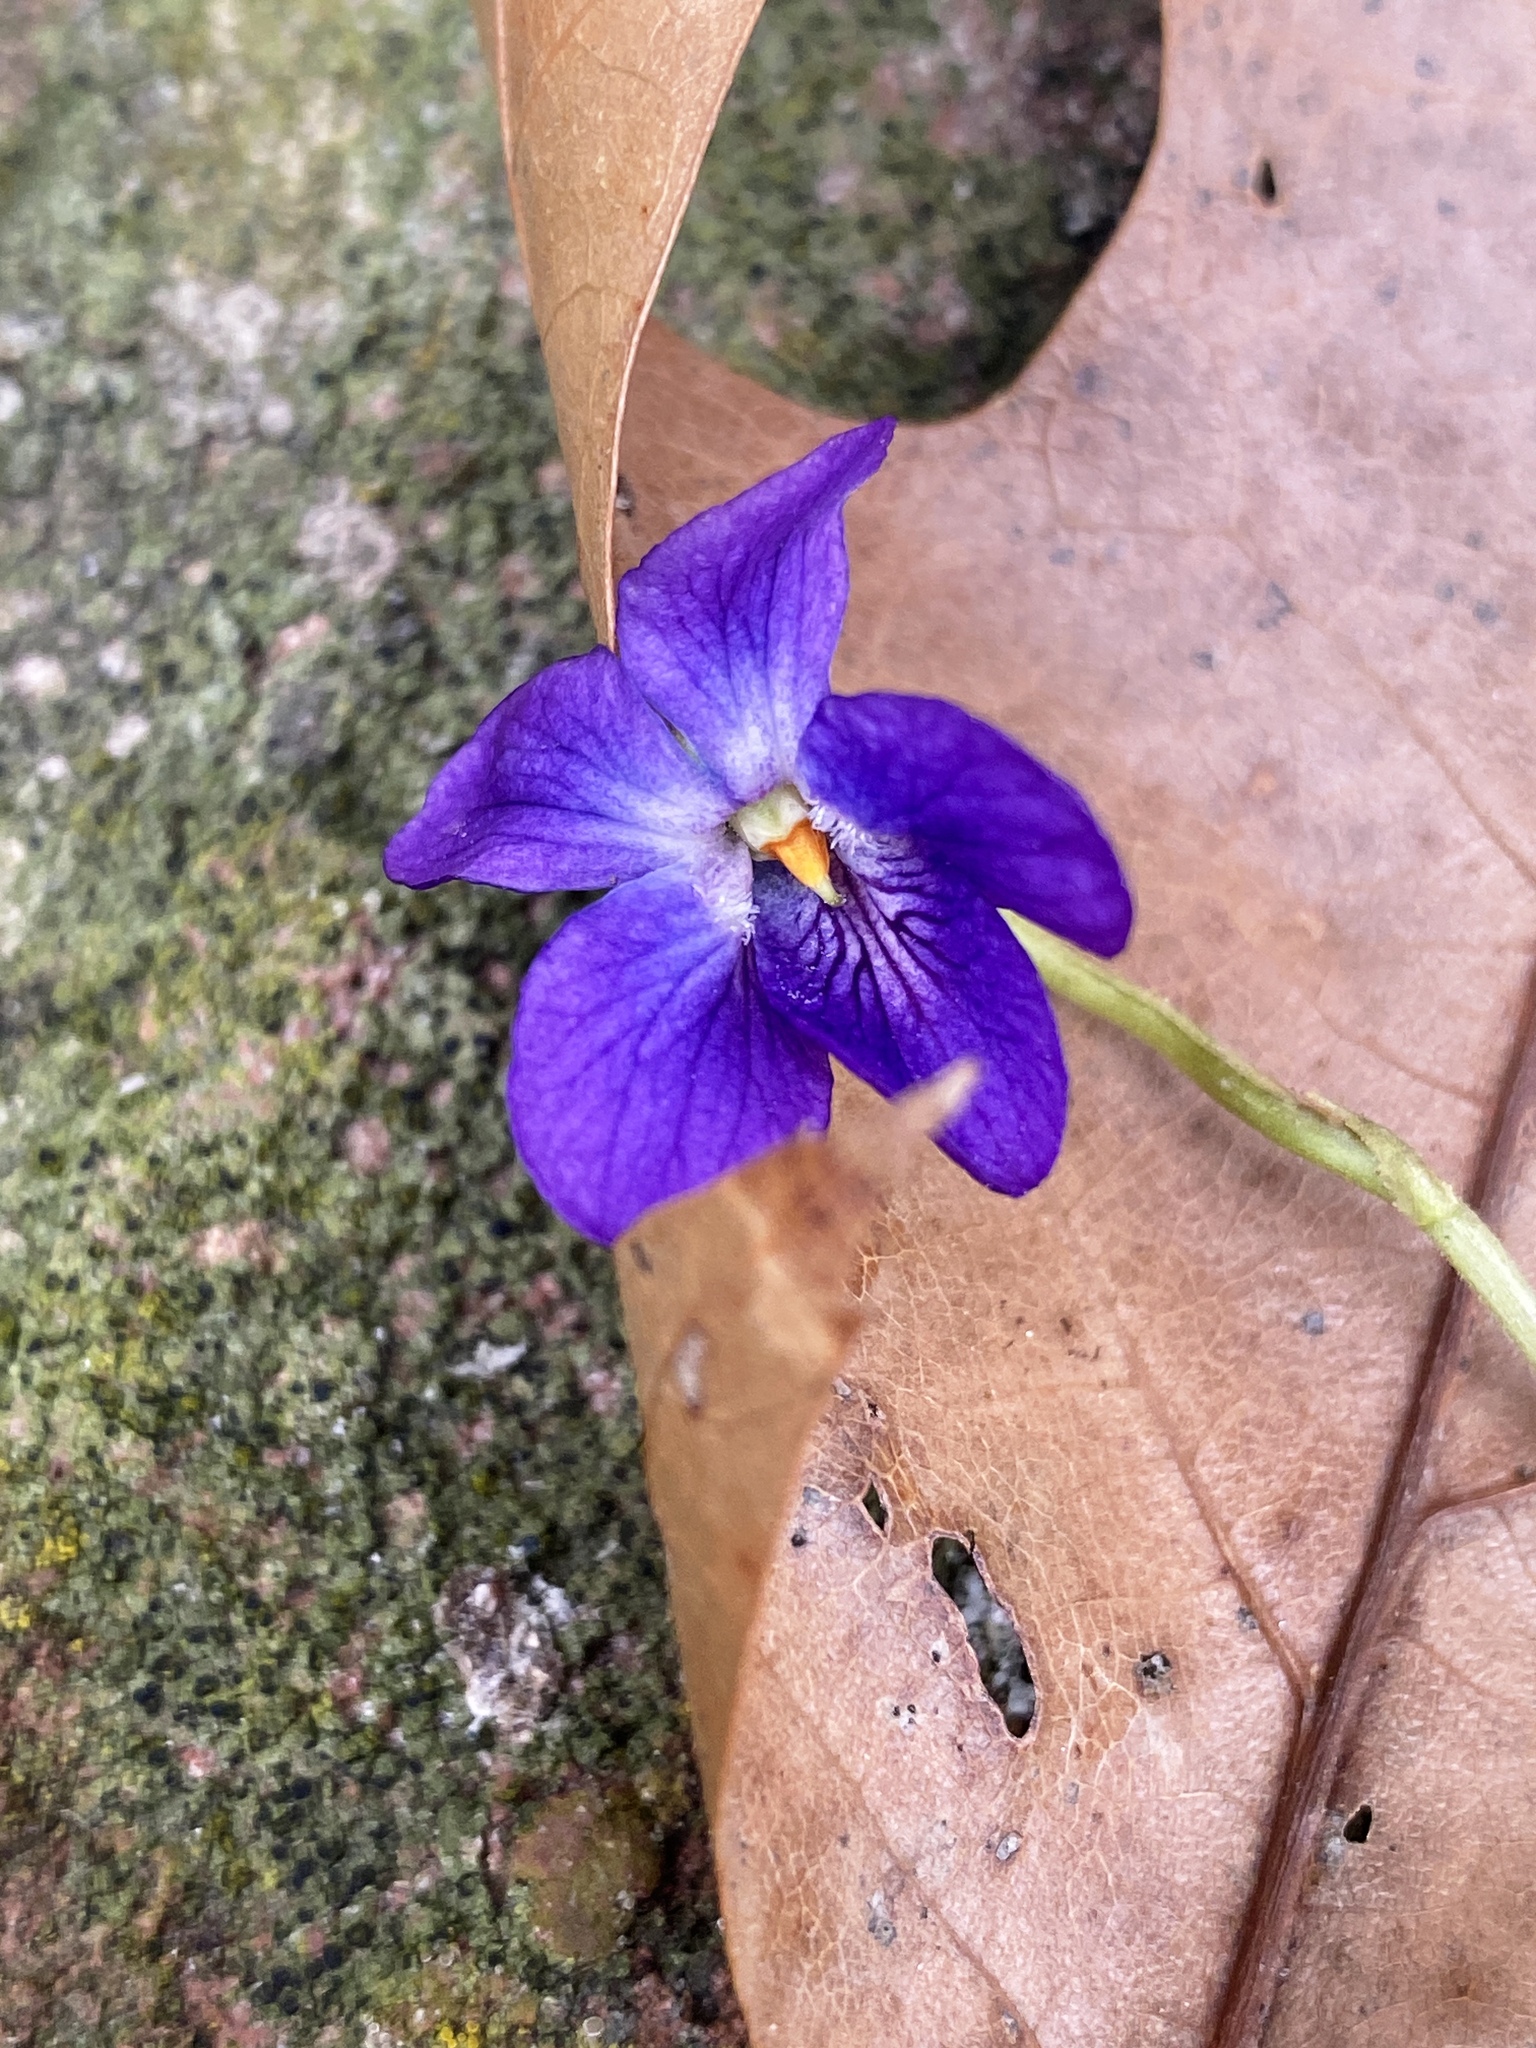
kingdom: Plantae
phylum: Tracheophyta
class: Magnoliopsida
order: Malpighiales
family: Violaceae
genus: Viola
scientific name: Viola odorata
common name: Sweet violet
